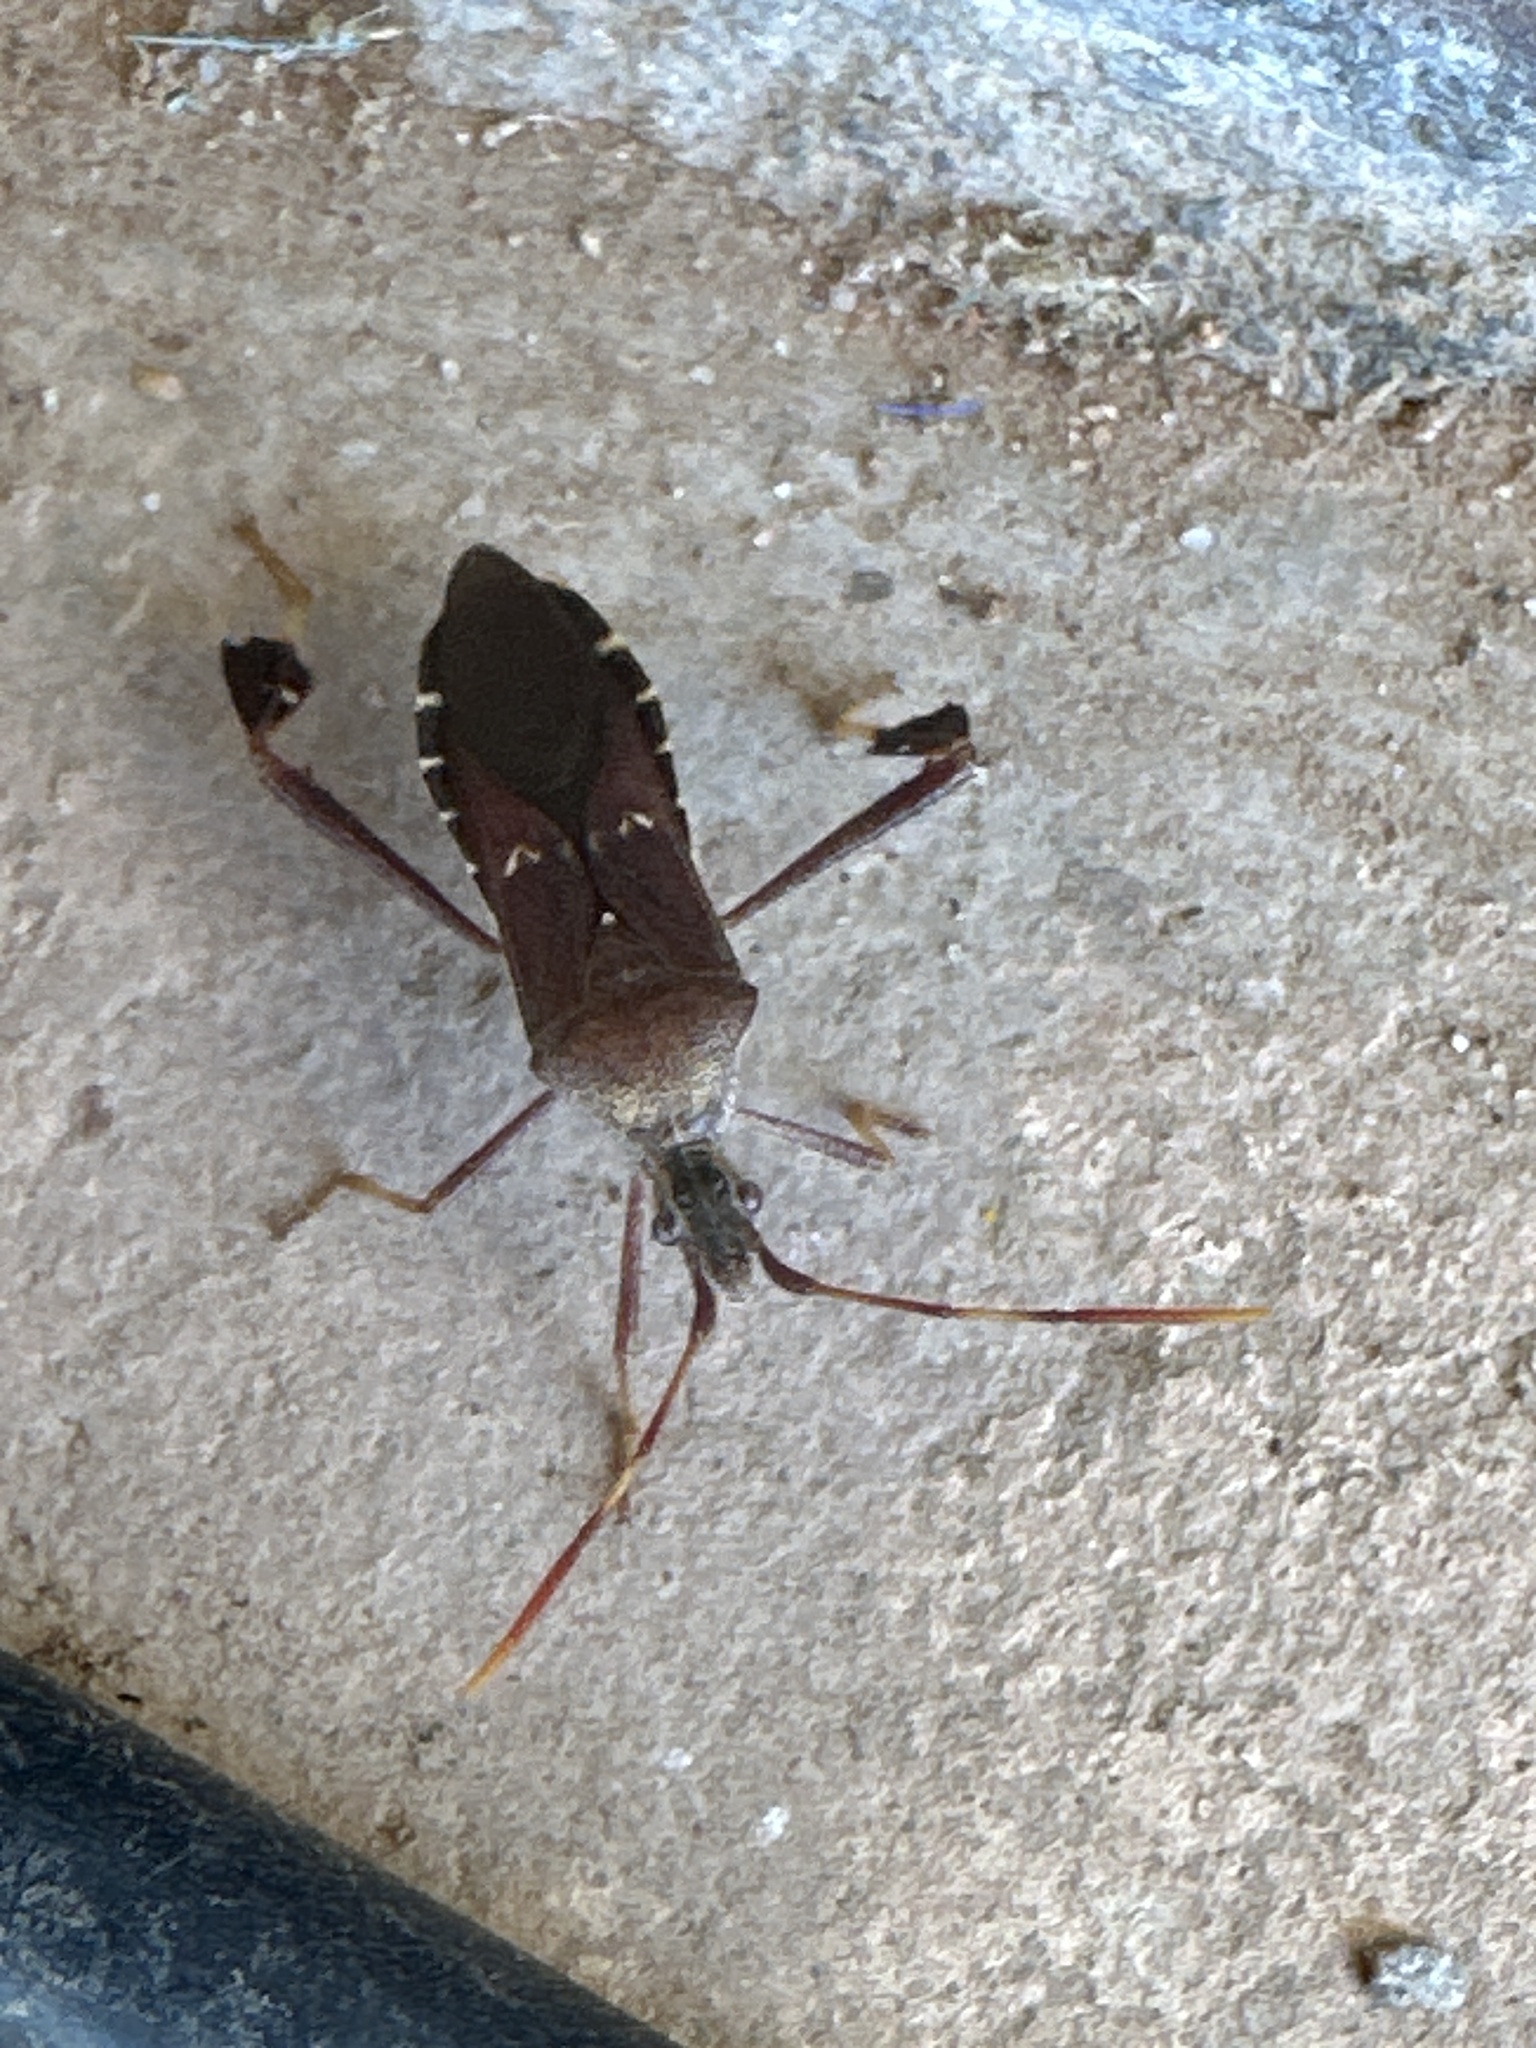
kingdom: Animalia
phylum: Arthropoda
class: Insecta
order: Hemiptera
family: Coreidae
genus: Leptoglossus
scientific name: Leptoglossus oppositus
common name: Northern leaf-footed bug
